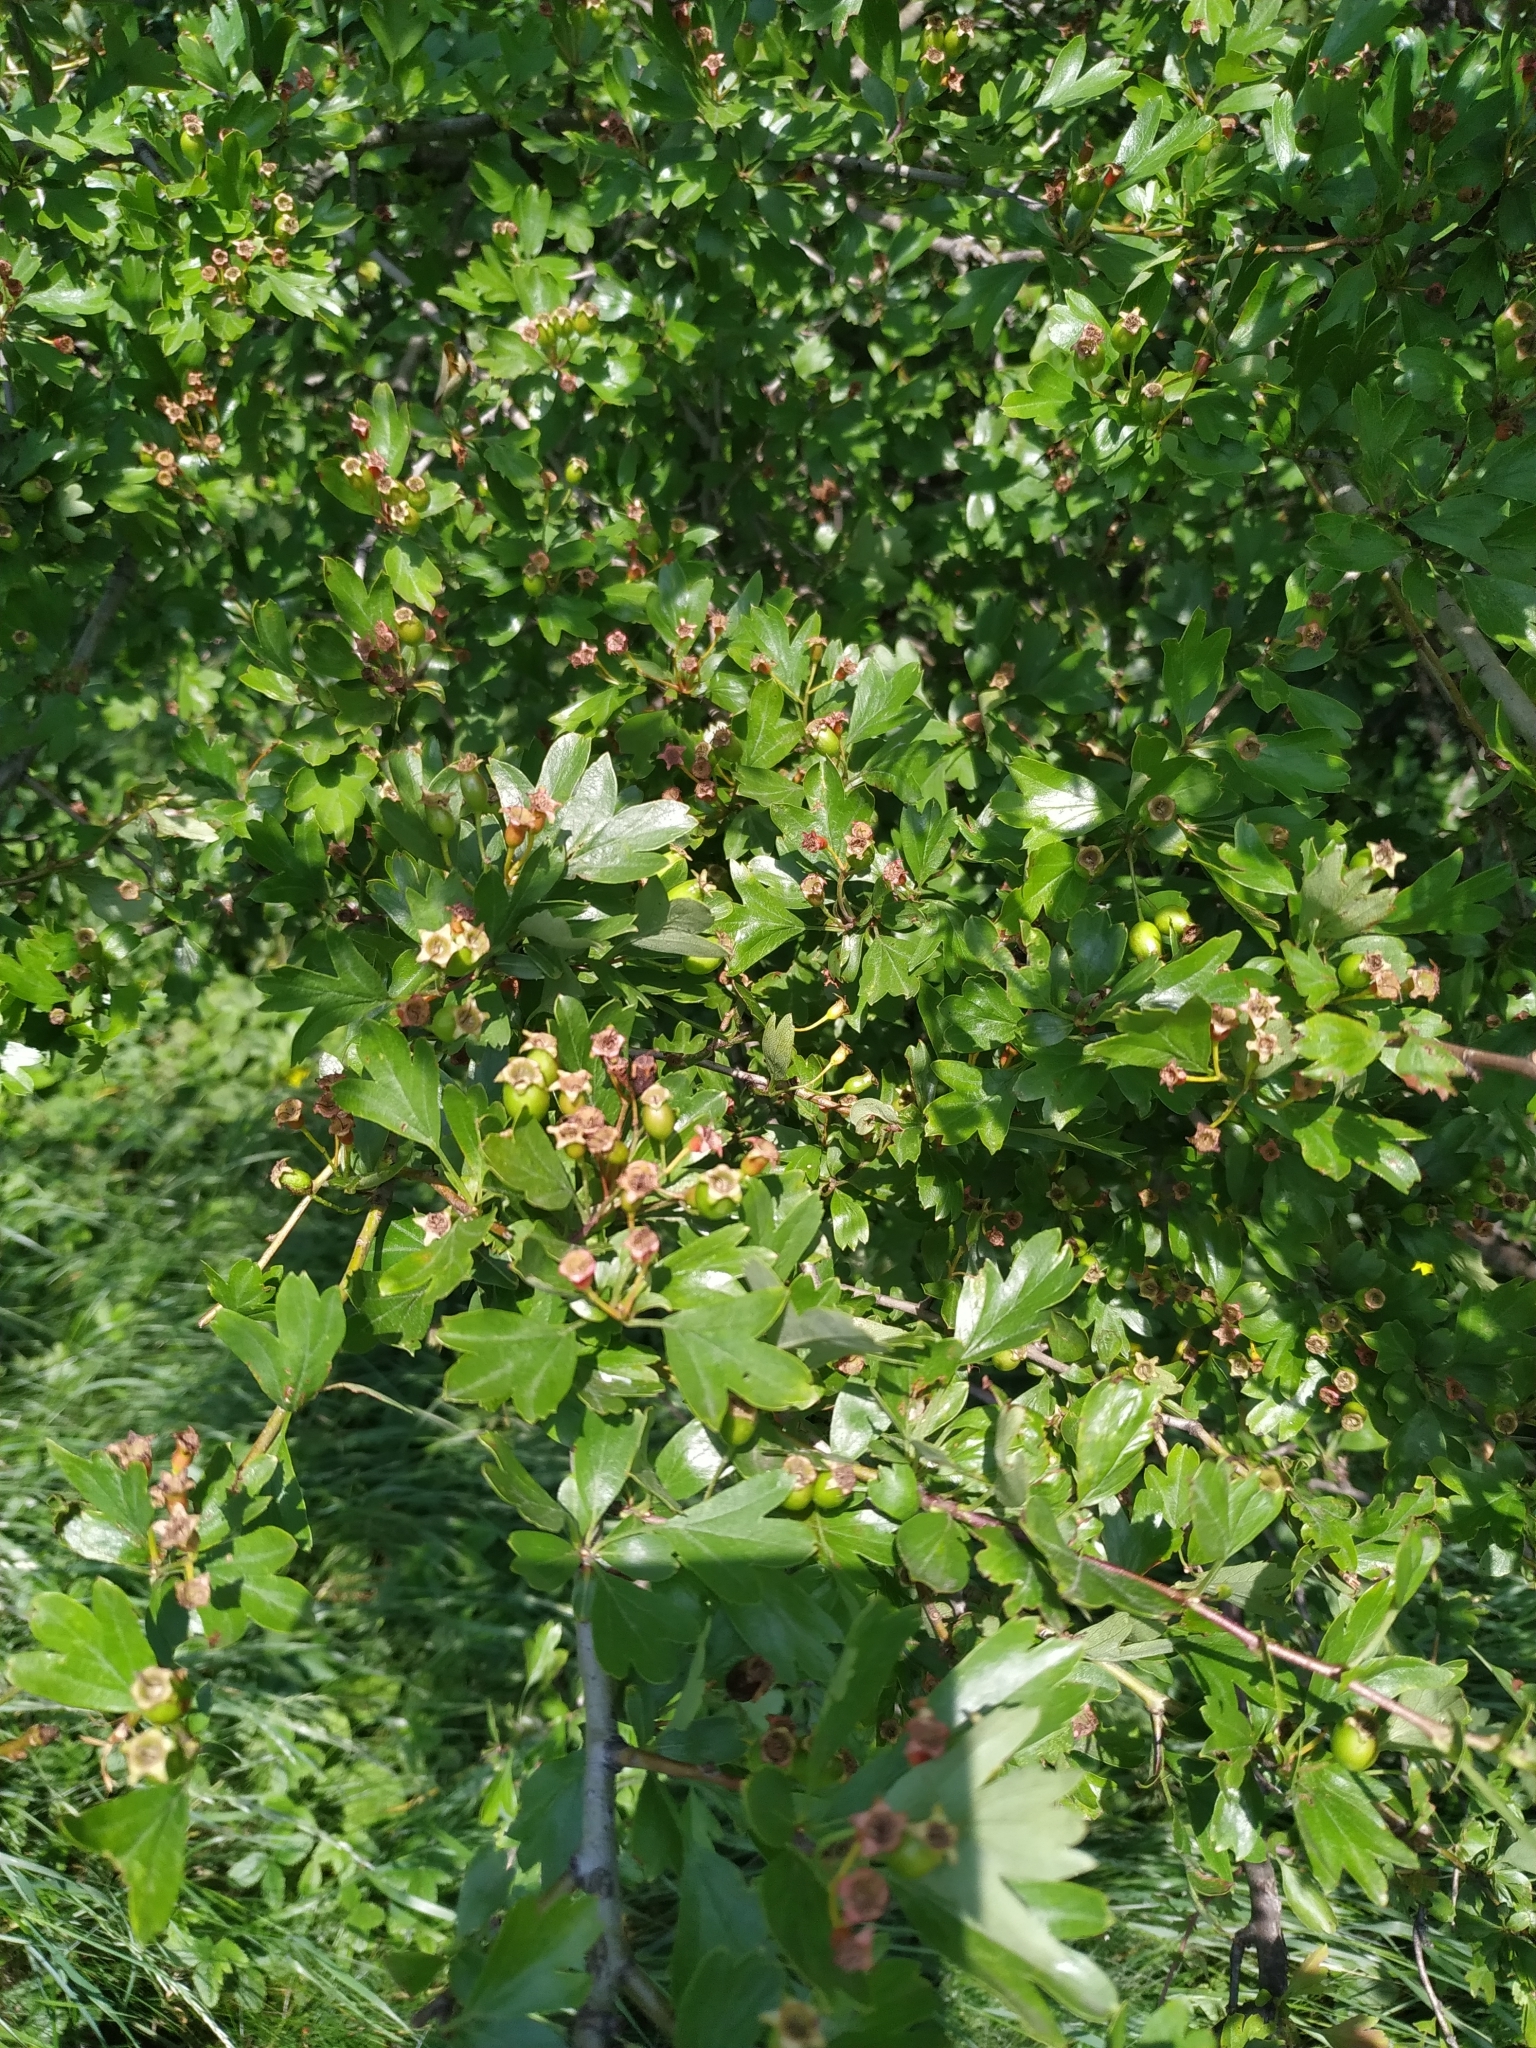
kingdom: Plantae
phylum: Tracheophyta
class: Magnoliopsida
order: Rosales
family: Rosaceae
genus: Crataegus
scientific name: Crataegus monogyna
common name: Hawthorn
